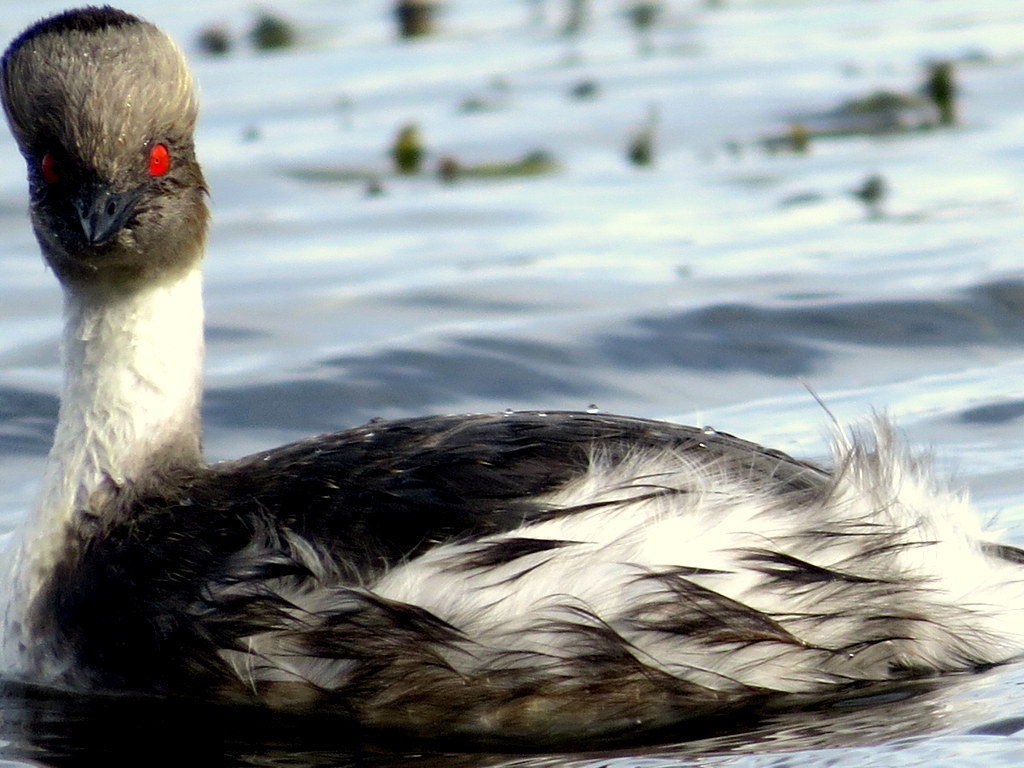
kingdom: Animalia
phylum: Chordata
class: Aves
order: Podicipediformes
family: Podicipedidae
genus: Podiceps
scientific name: Podiceps occipitalis
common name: Silvery grebe
